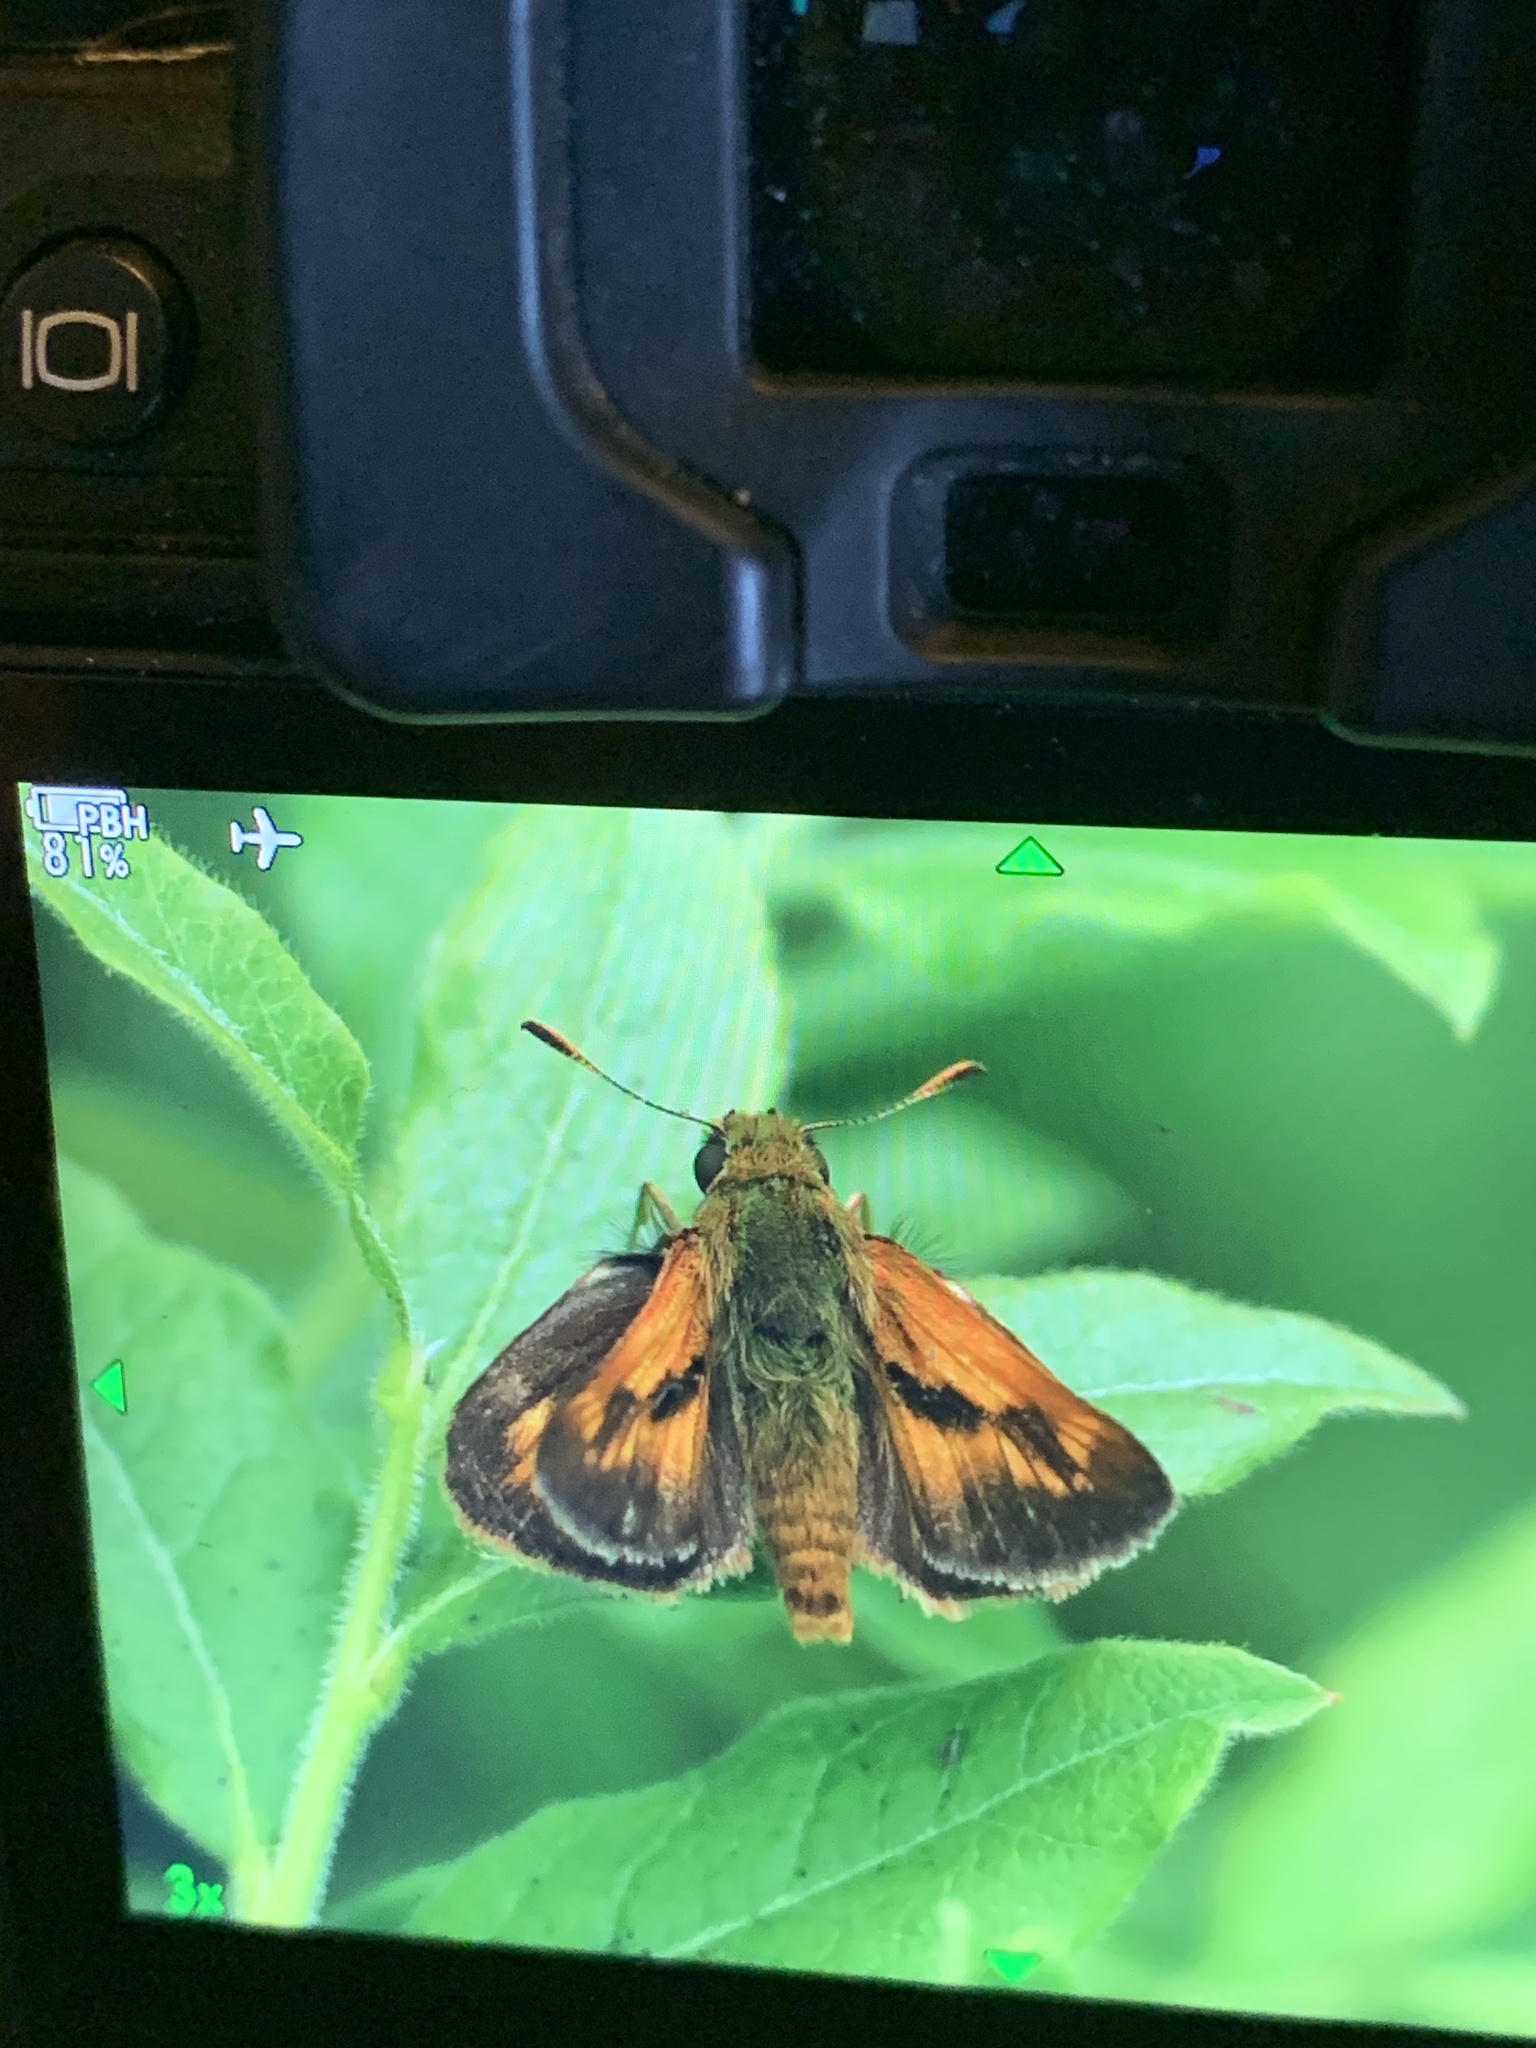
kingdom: Animalia
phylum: Arthropoda
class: Insecta
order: Lepidoptera
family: Hesperiidae
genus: Polites
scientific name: Polites mystic
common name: Long dash
